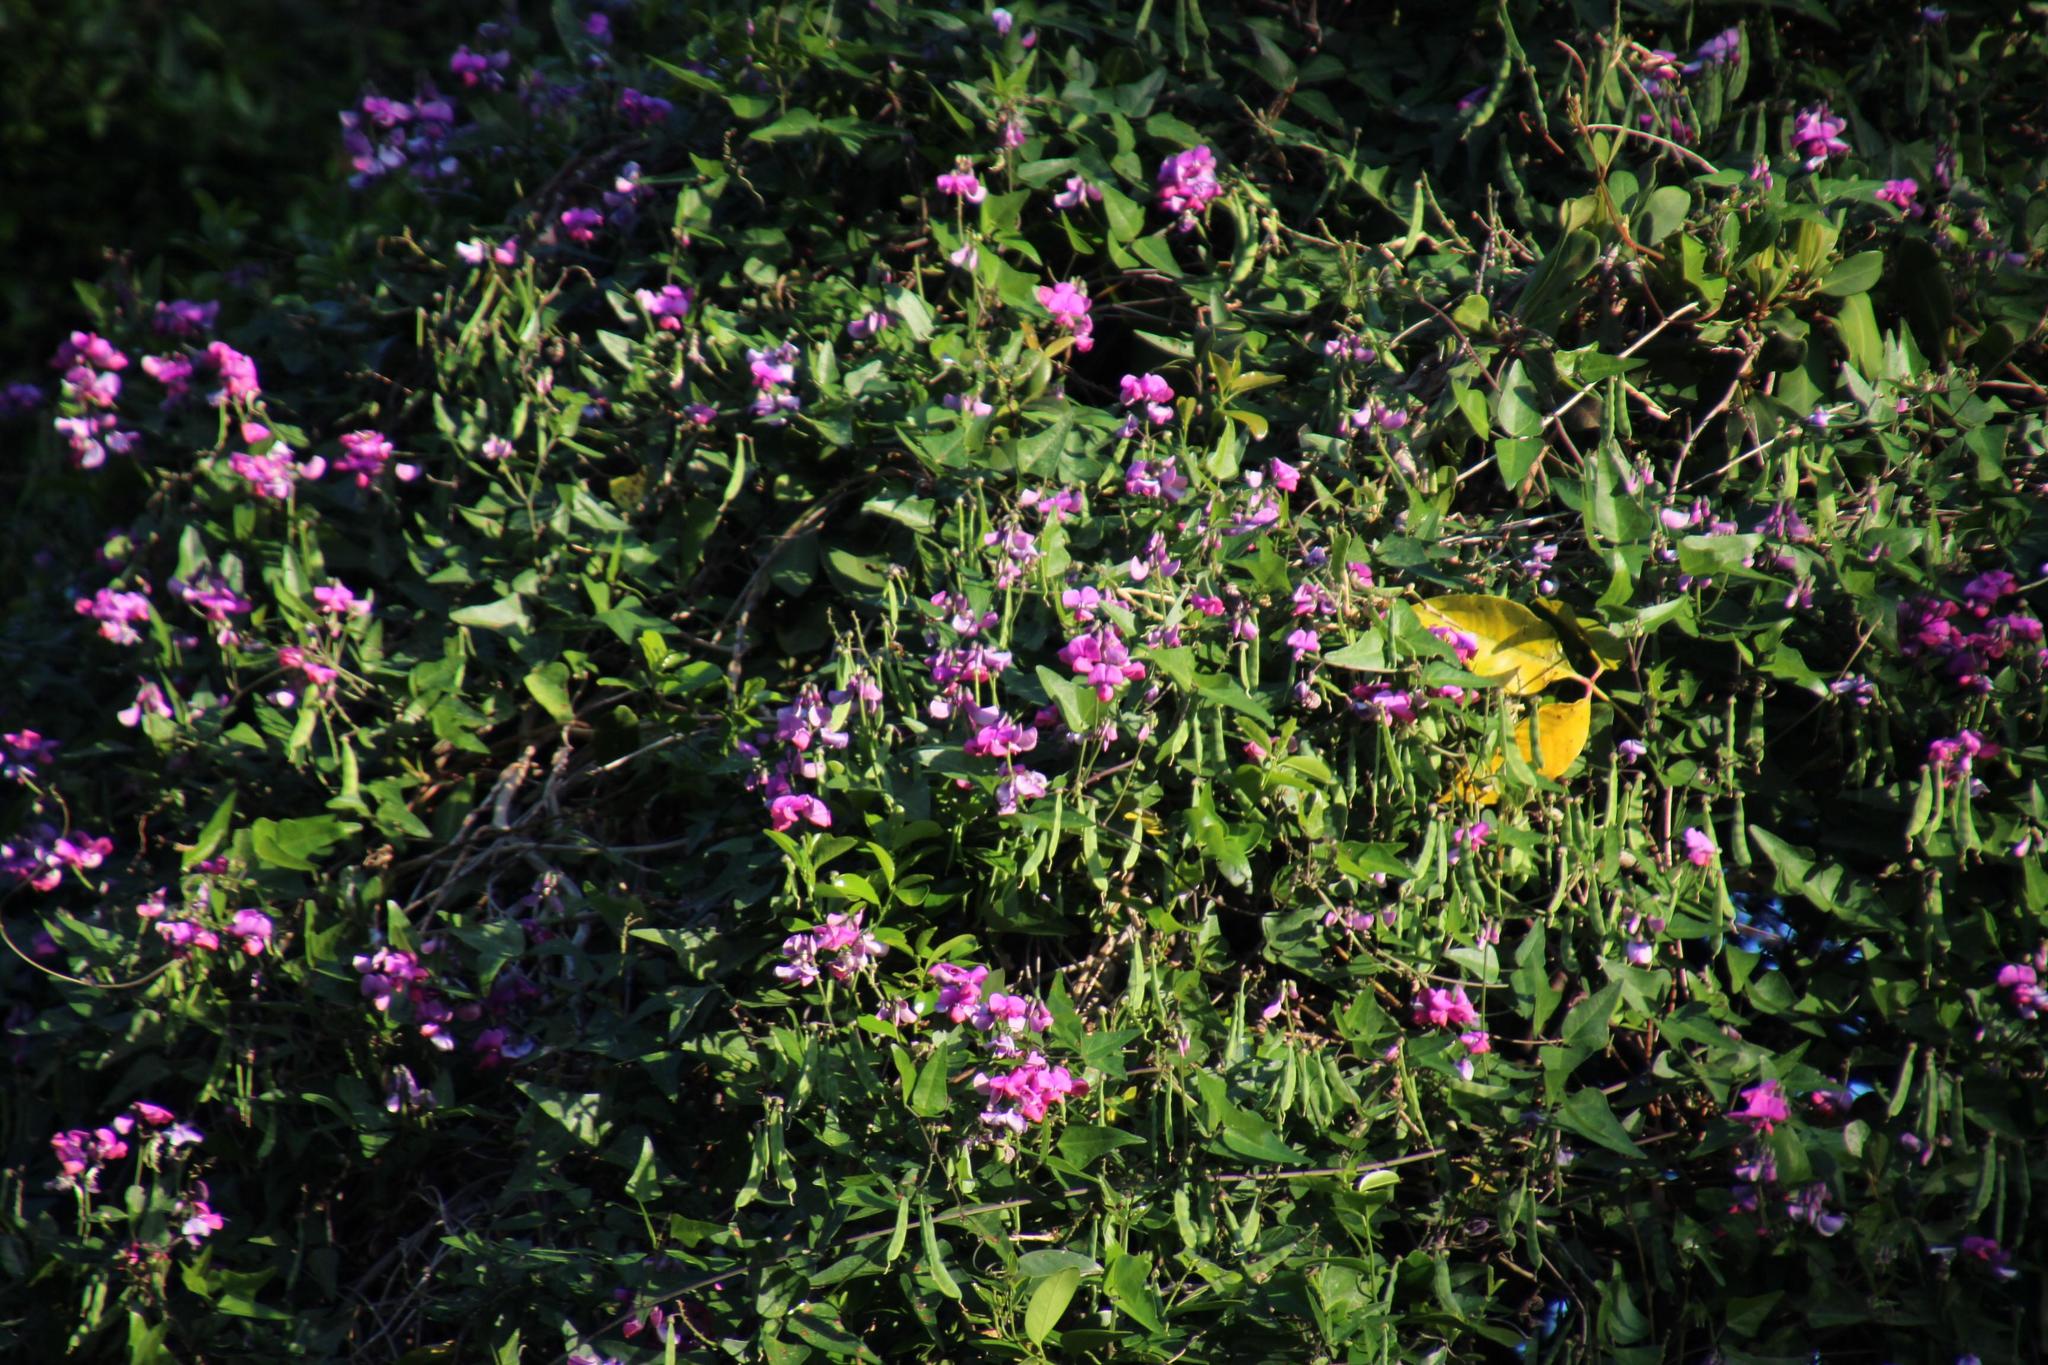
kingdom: Plantae
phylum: Tracheophyta
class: Magnoliopsida
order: Fabales
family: Fabaceae
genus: Dipogon
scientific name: Dipogon lignosus
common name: Okie bean
